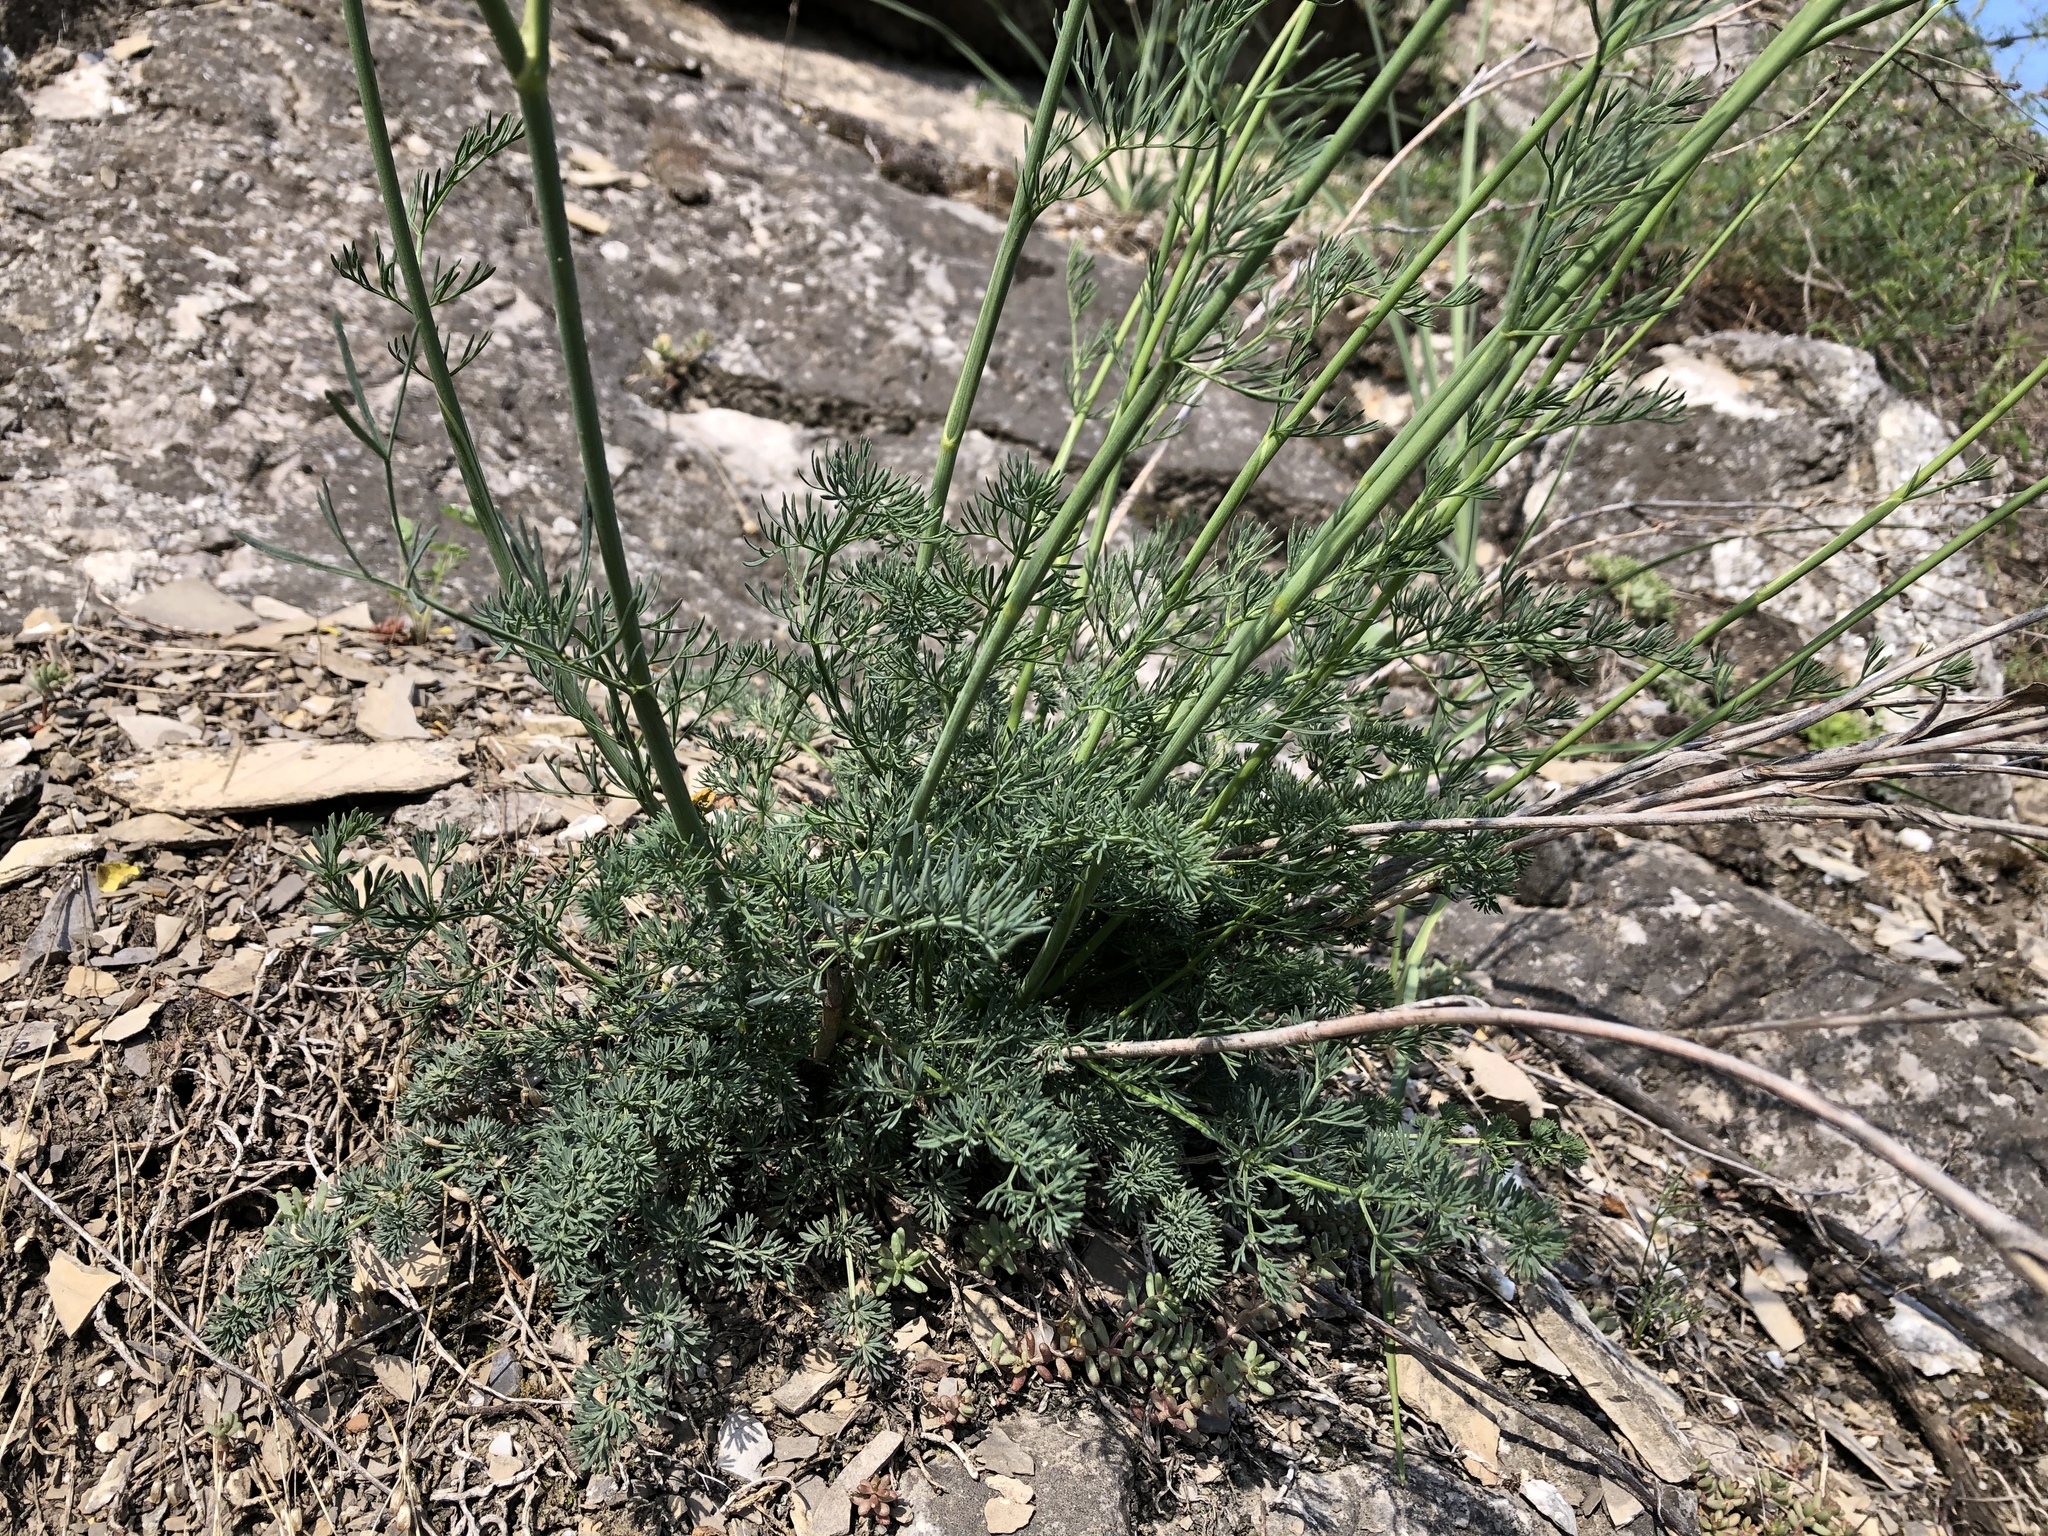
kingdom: Plantae
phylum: Tracheophyta
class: Magnoliopsida
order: Apiales
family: Apiaceae
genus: Hippomarathrum
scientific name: Hippomarathrum
